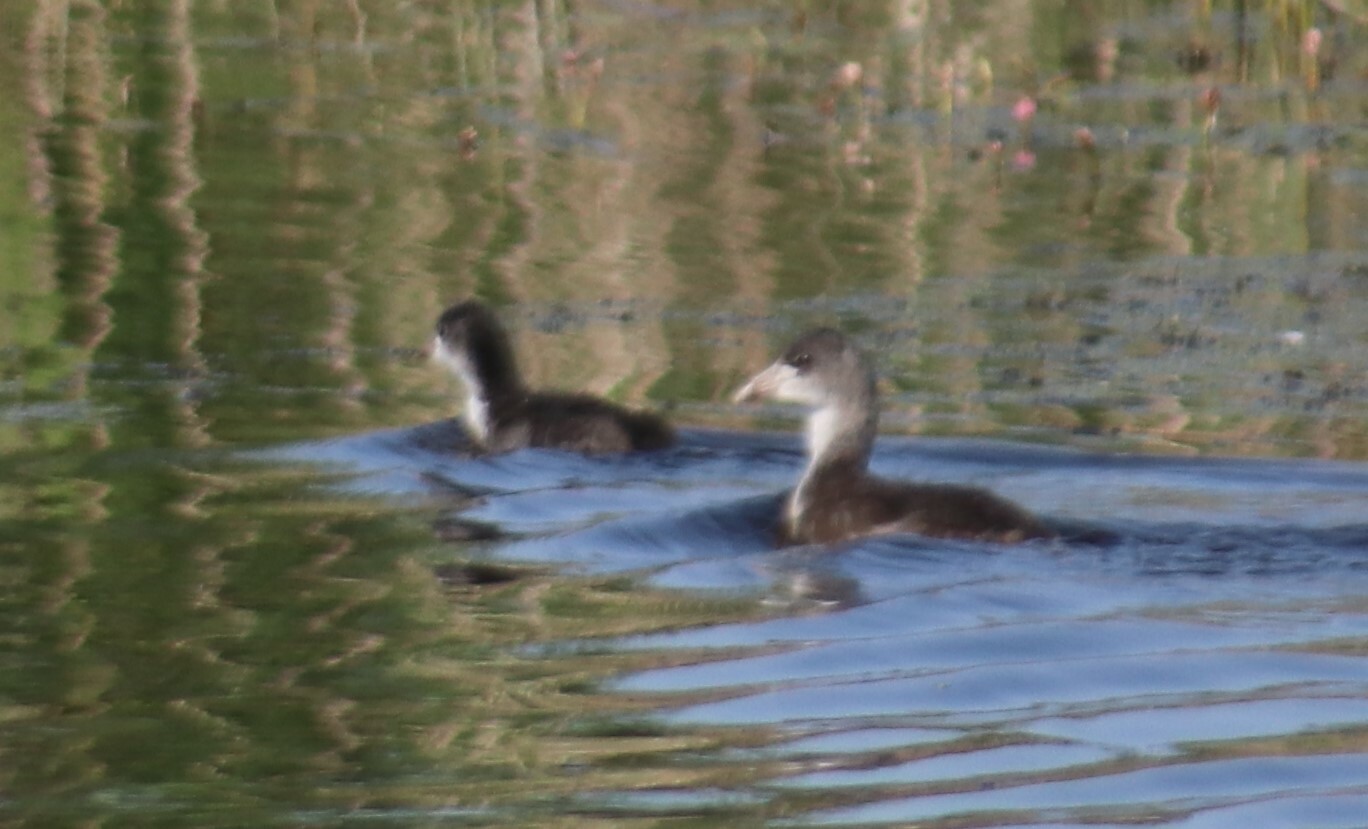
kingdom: Animalia
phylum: Chordata
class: Aves
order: Gruiformes
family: Rallidae
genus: Fulica
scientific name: Fulica americana
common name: American coot
